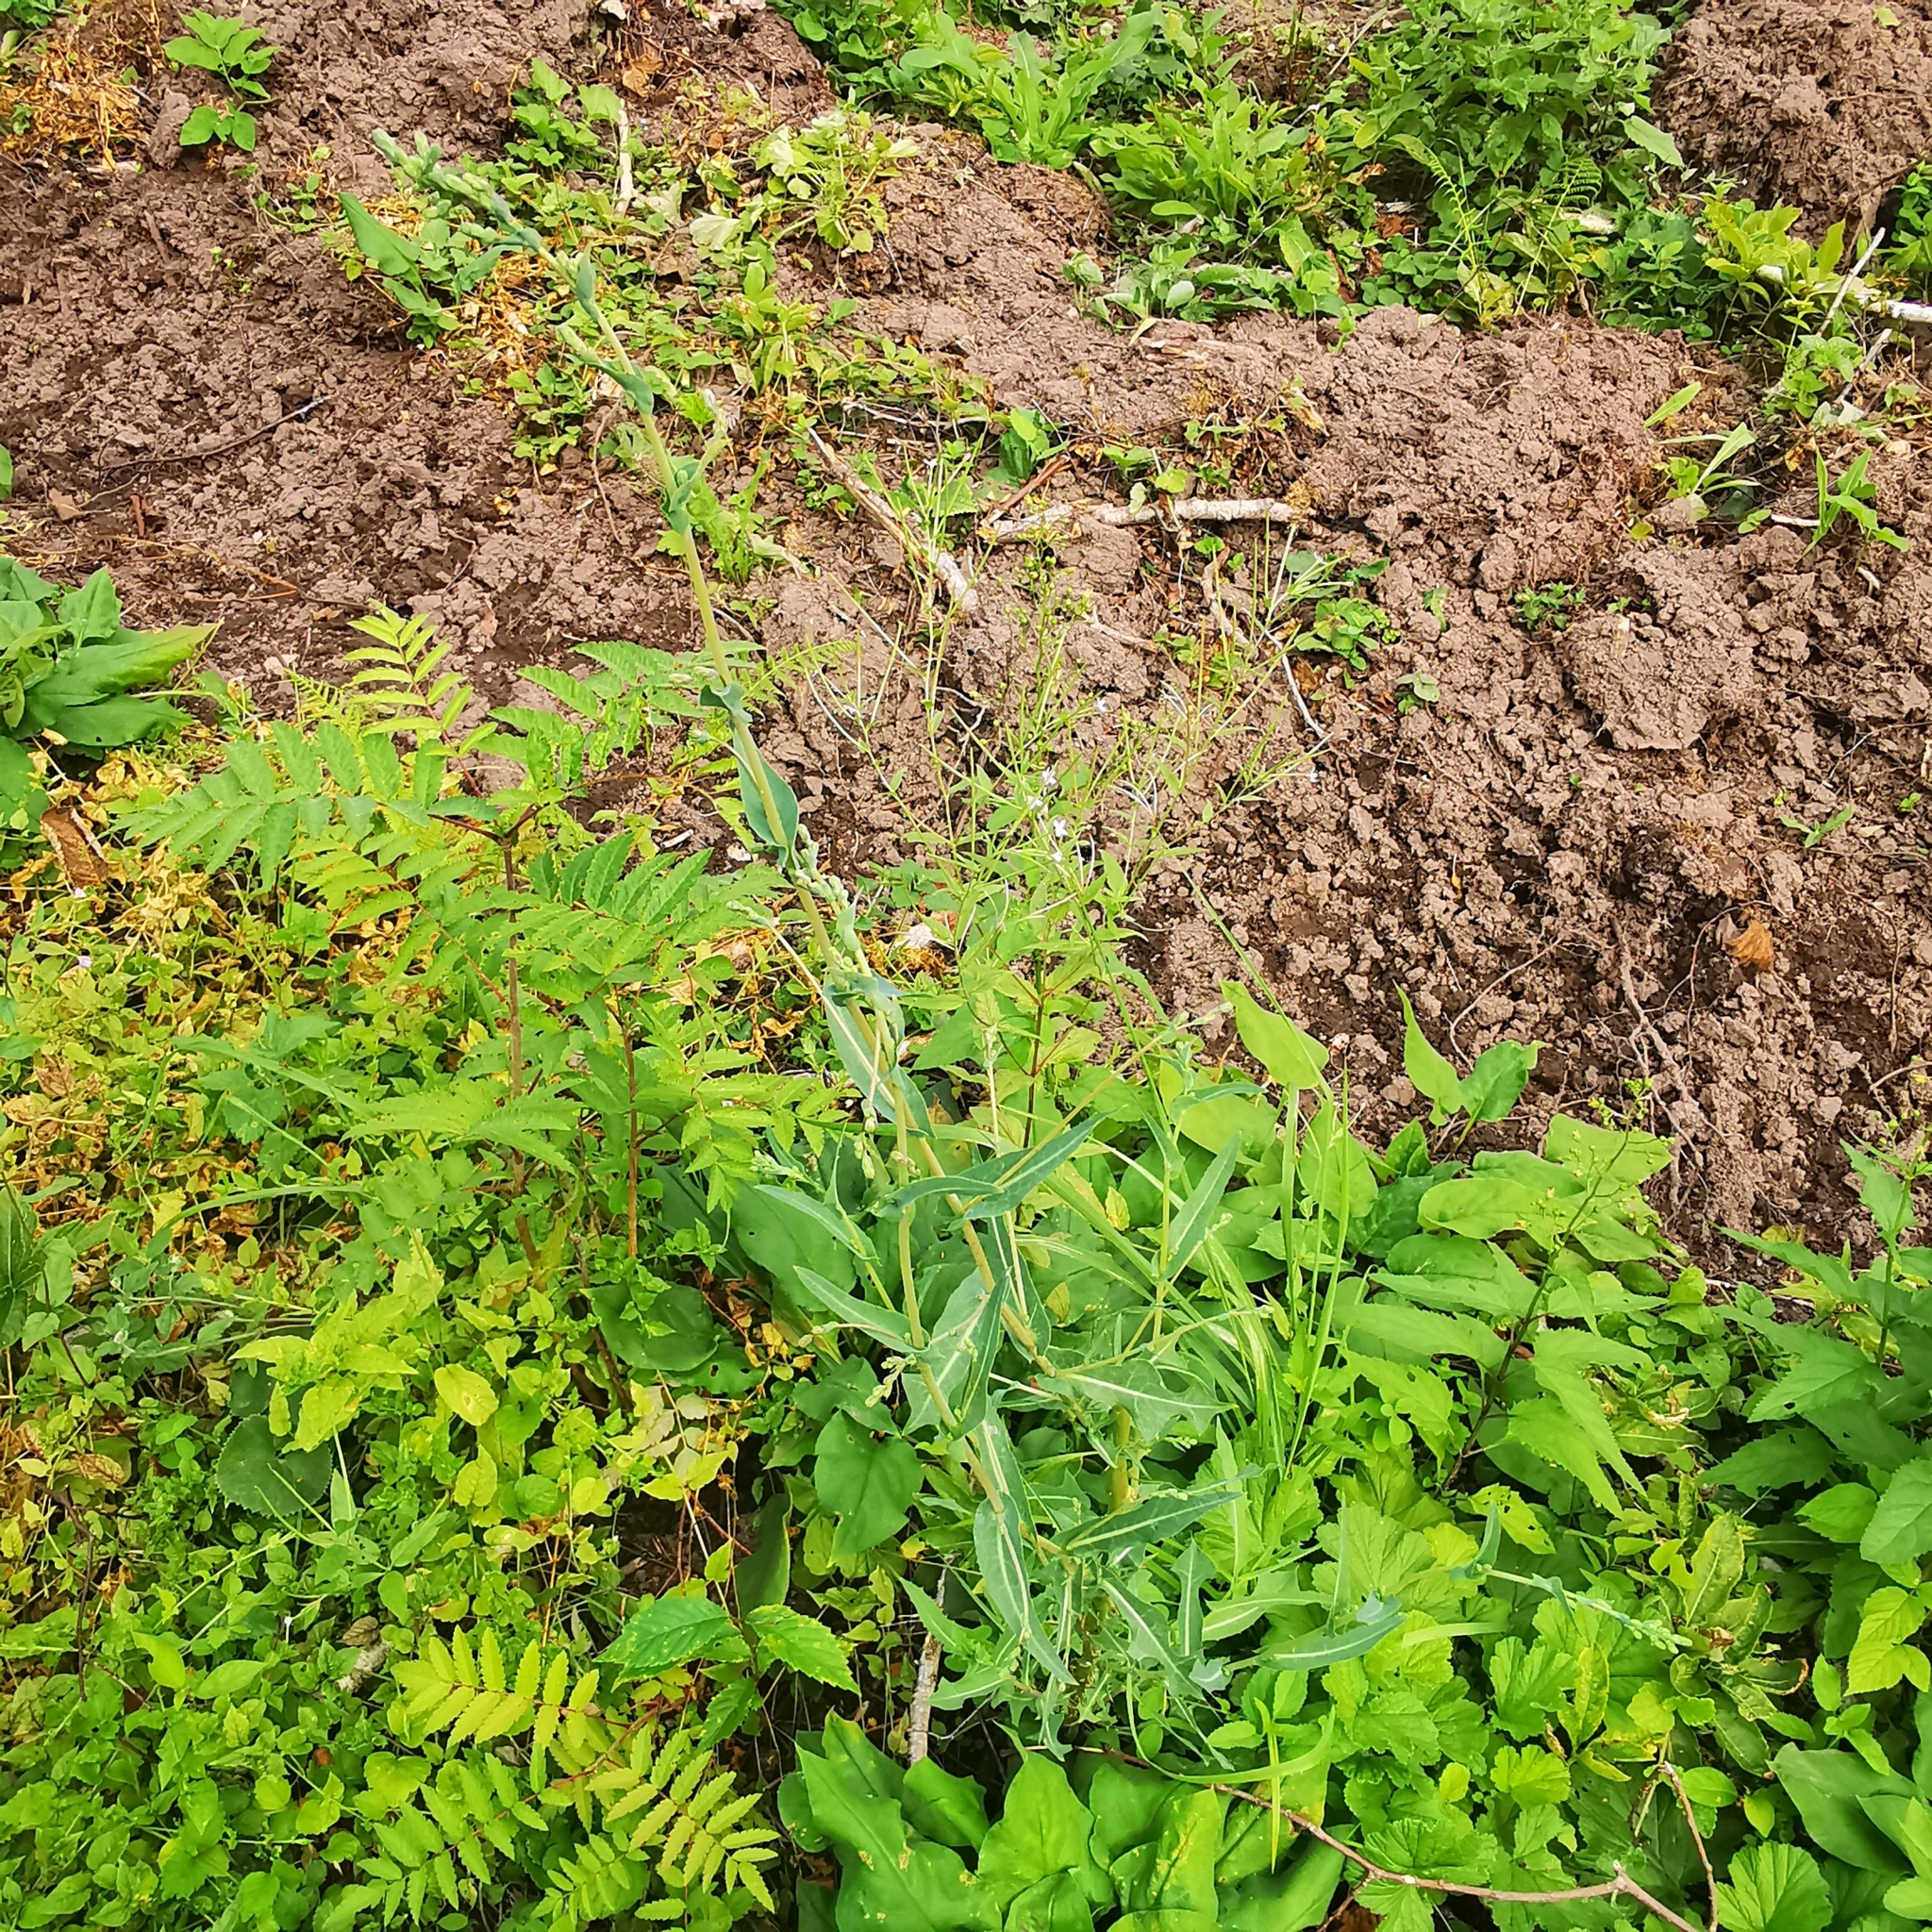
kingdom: Plantae
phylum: Tracheophyta
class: Magnoliopsida
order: Asterales
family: Asteraceae
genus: Lactuca
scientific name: Lactuca serriola
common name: Prickly lettuce
